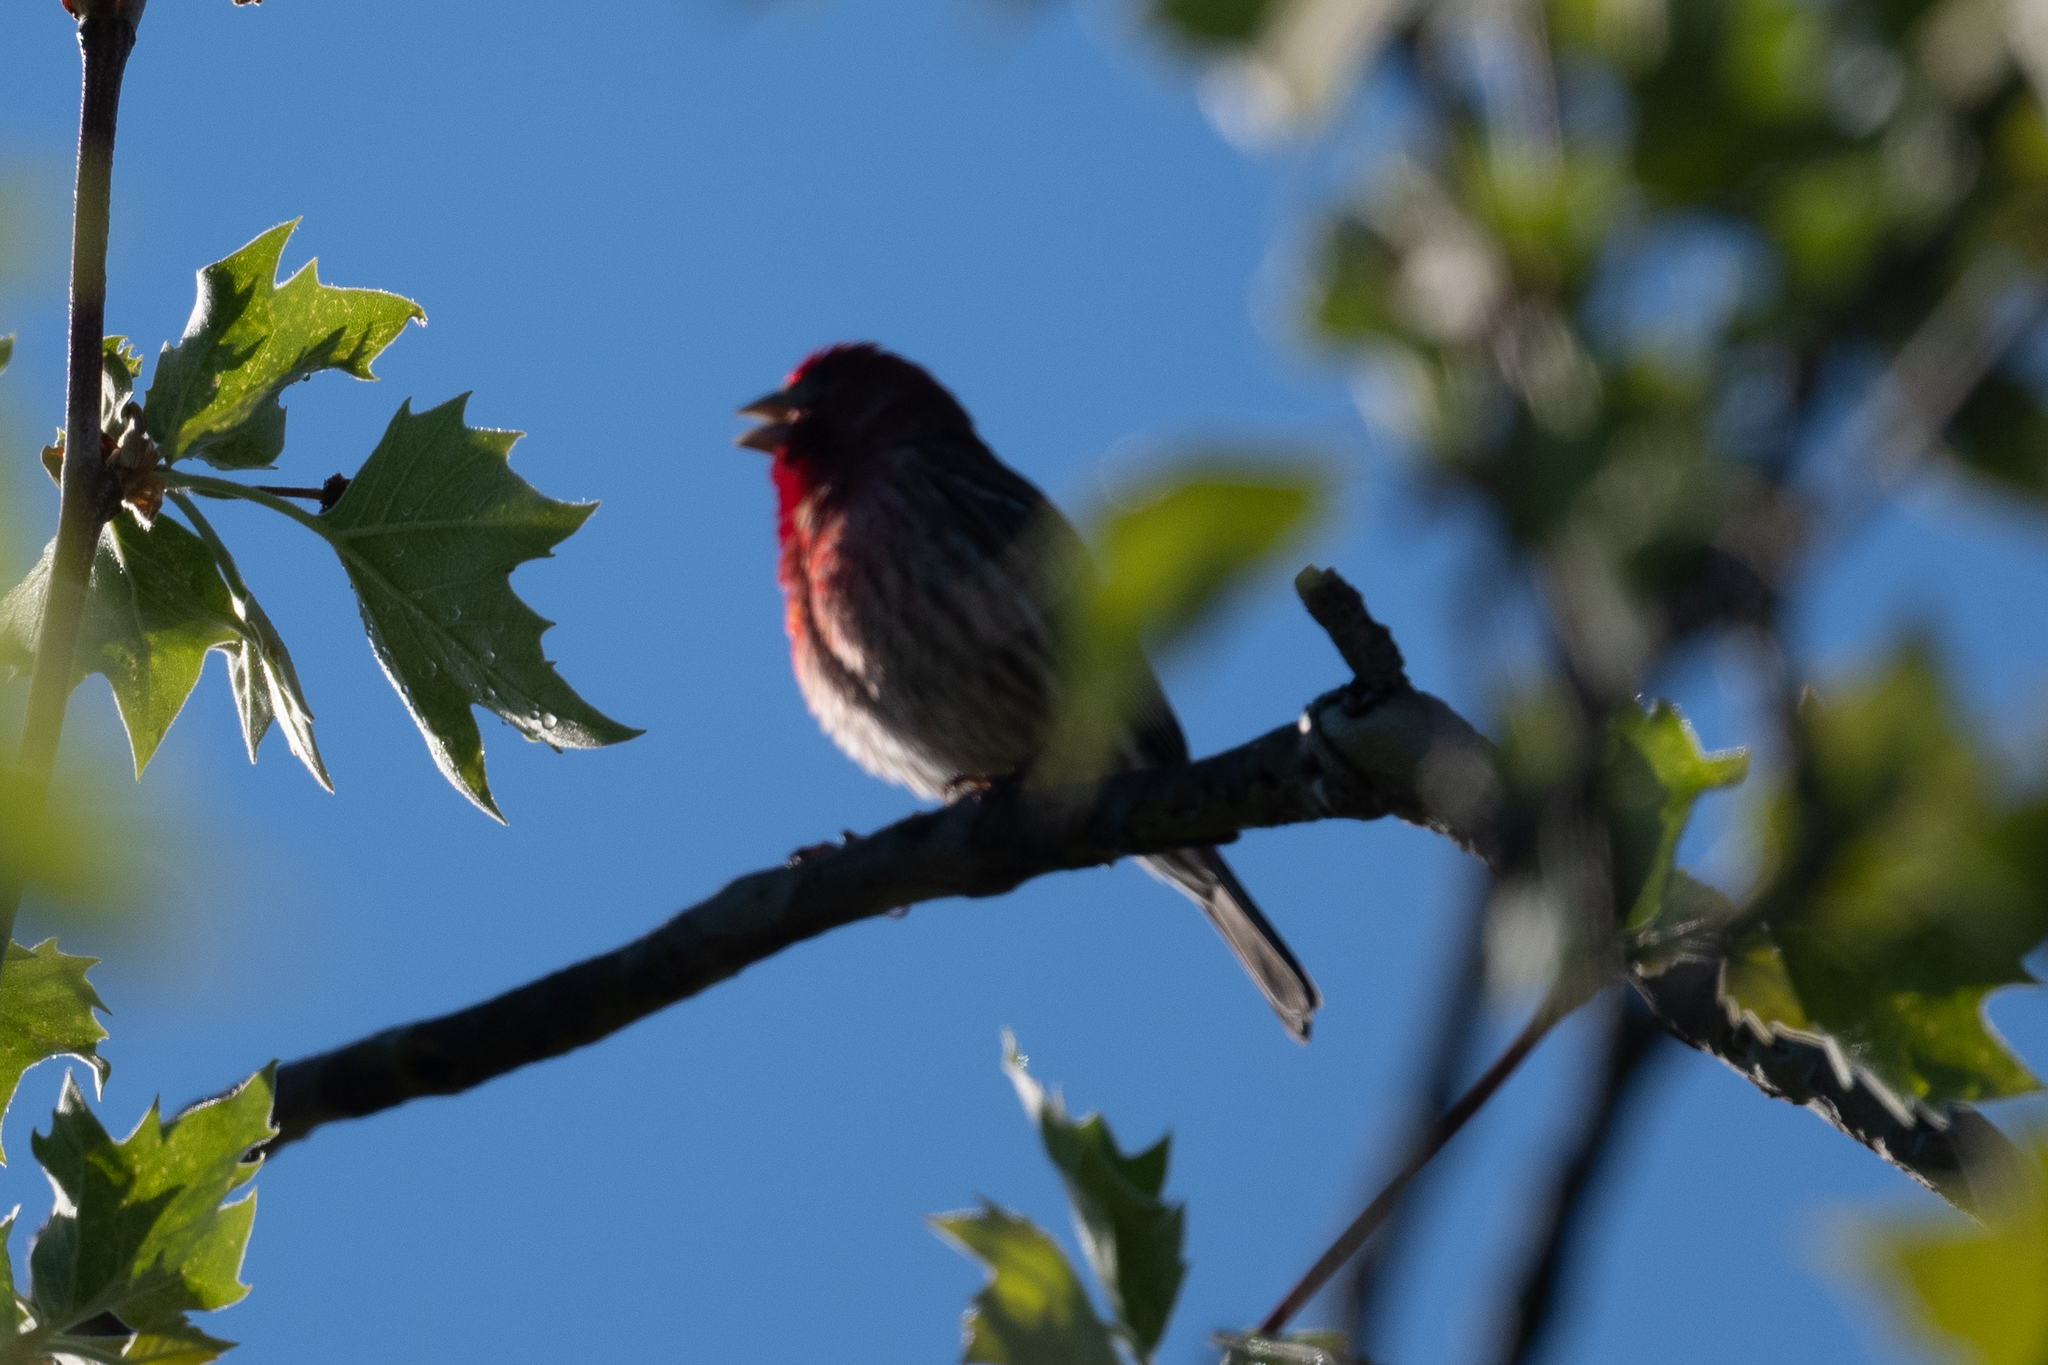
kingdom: Animalia
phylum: Chordata
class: Aves
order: Passeriformes
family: Fringillidae
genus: Haemorhous
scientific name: Haemorhous mexicanus
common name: House finch
